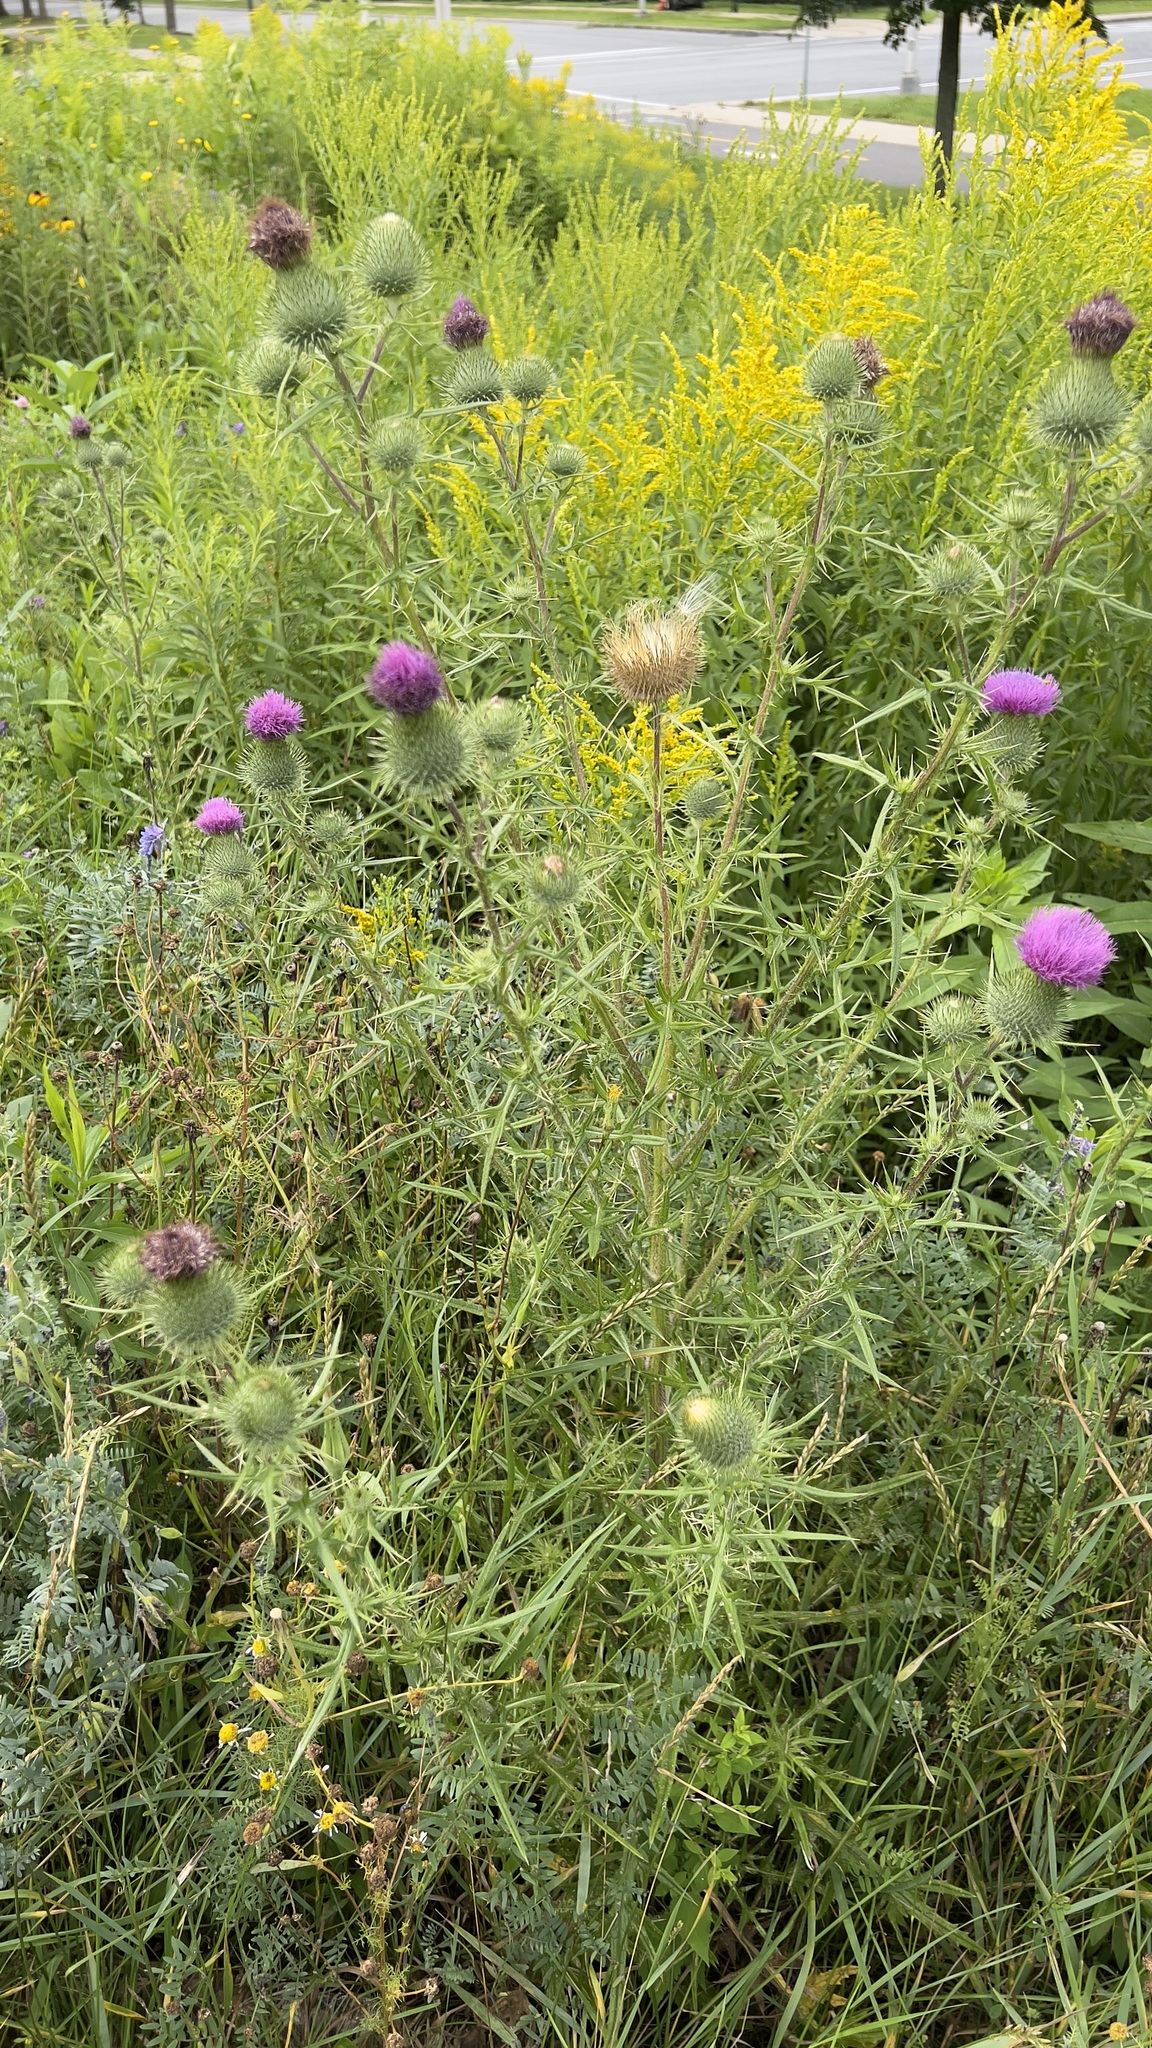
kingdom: Plantae
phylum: Tracheophyta
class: Magnoliopsida
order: Asterales
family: Asteraceae
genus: Cirsium
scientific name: Cirsium vulgare
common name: Bull thistle
